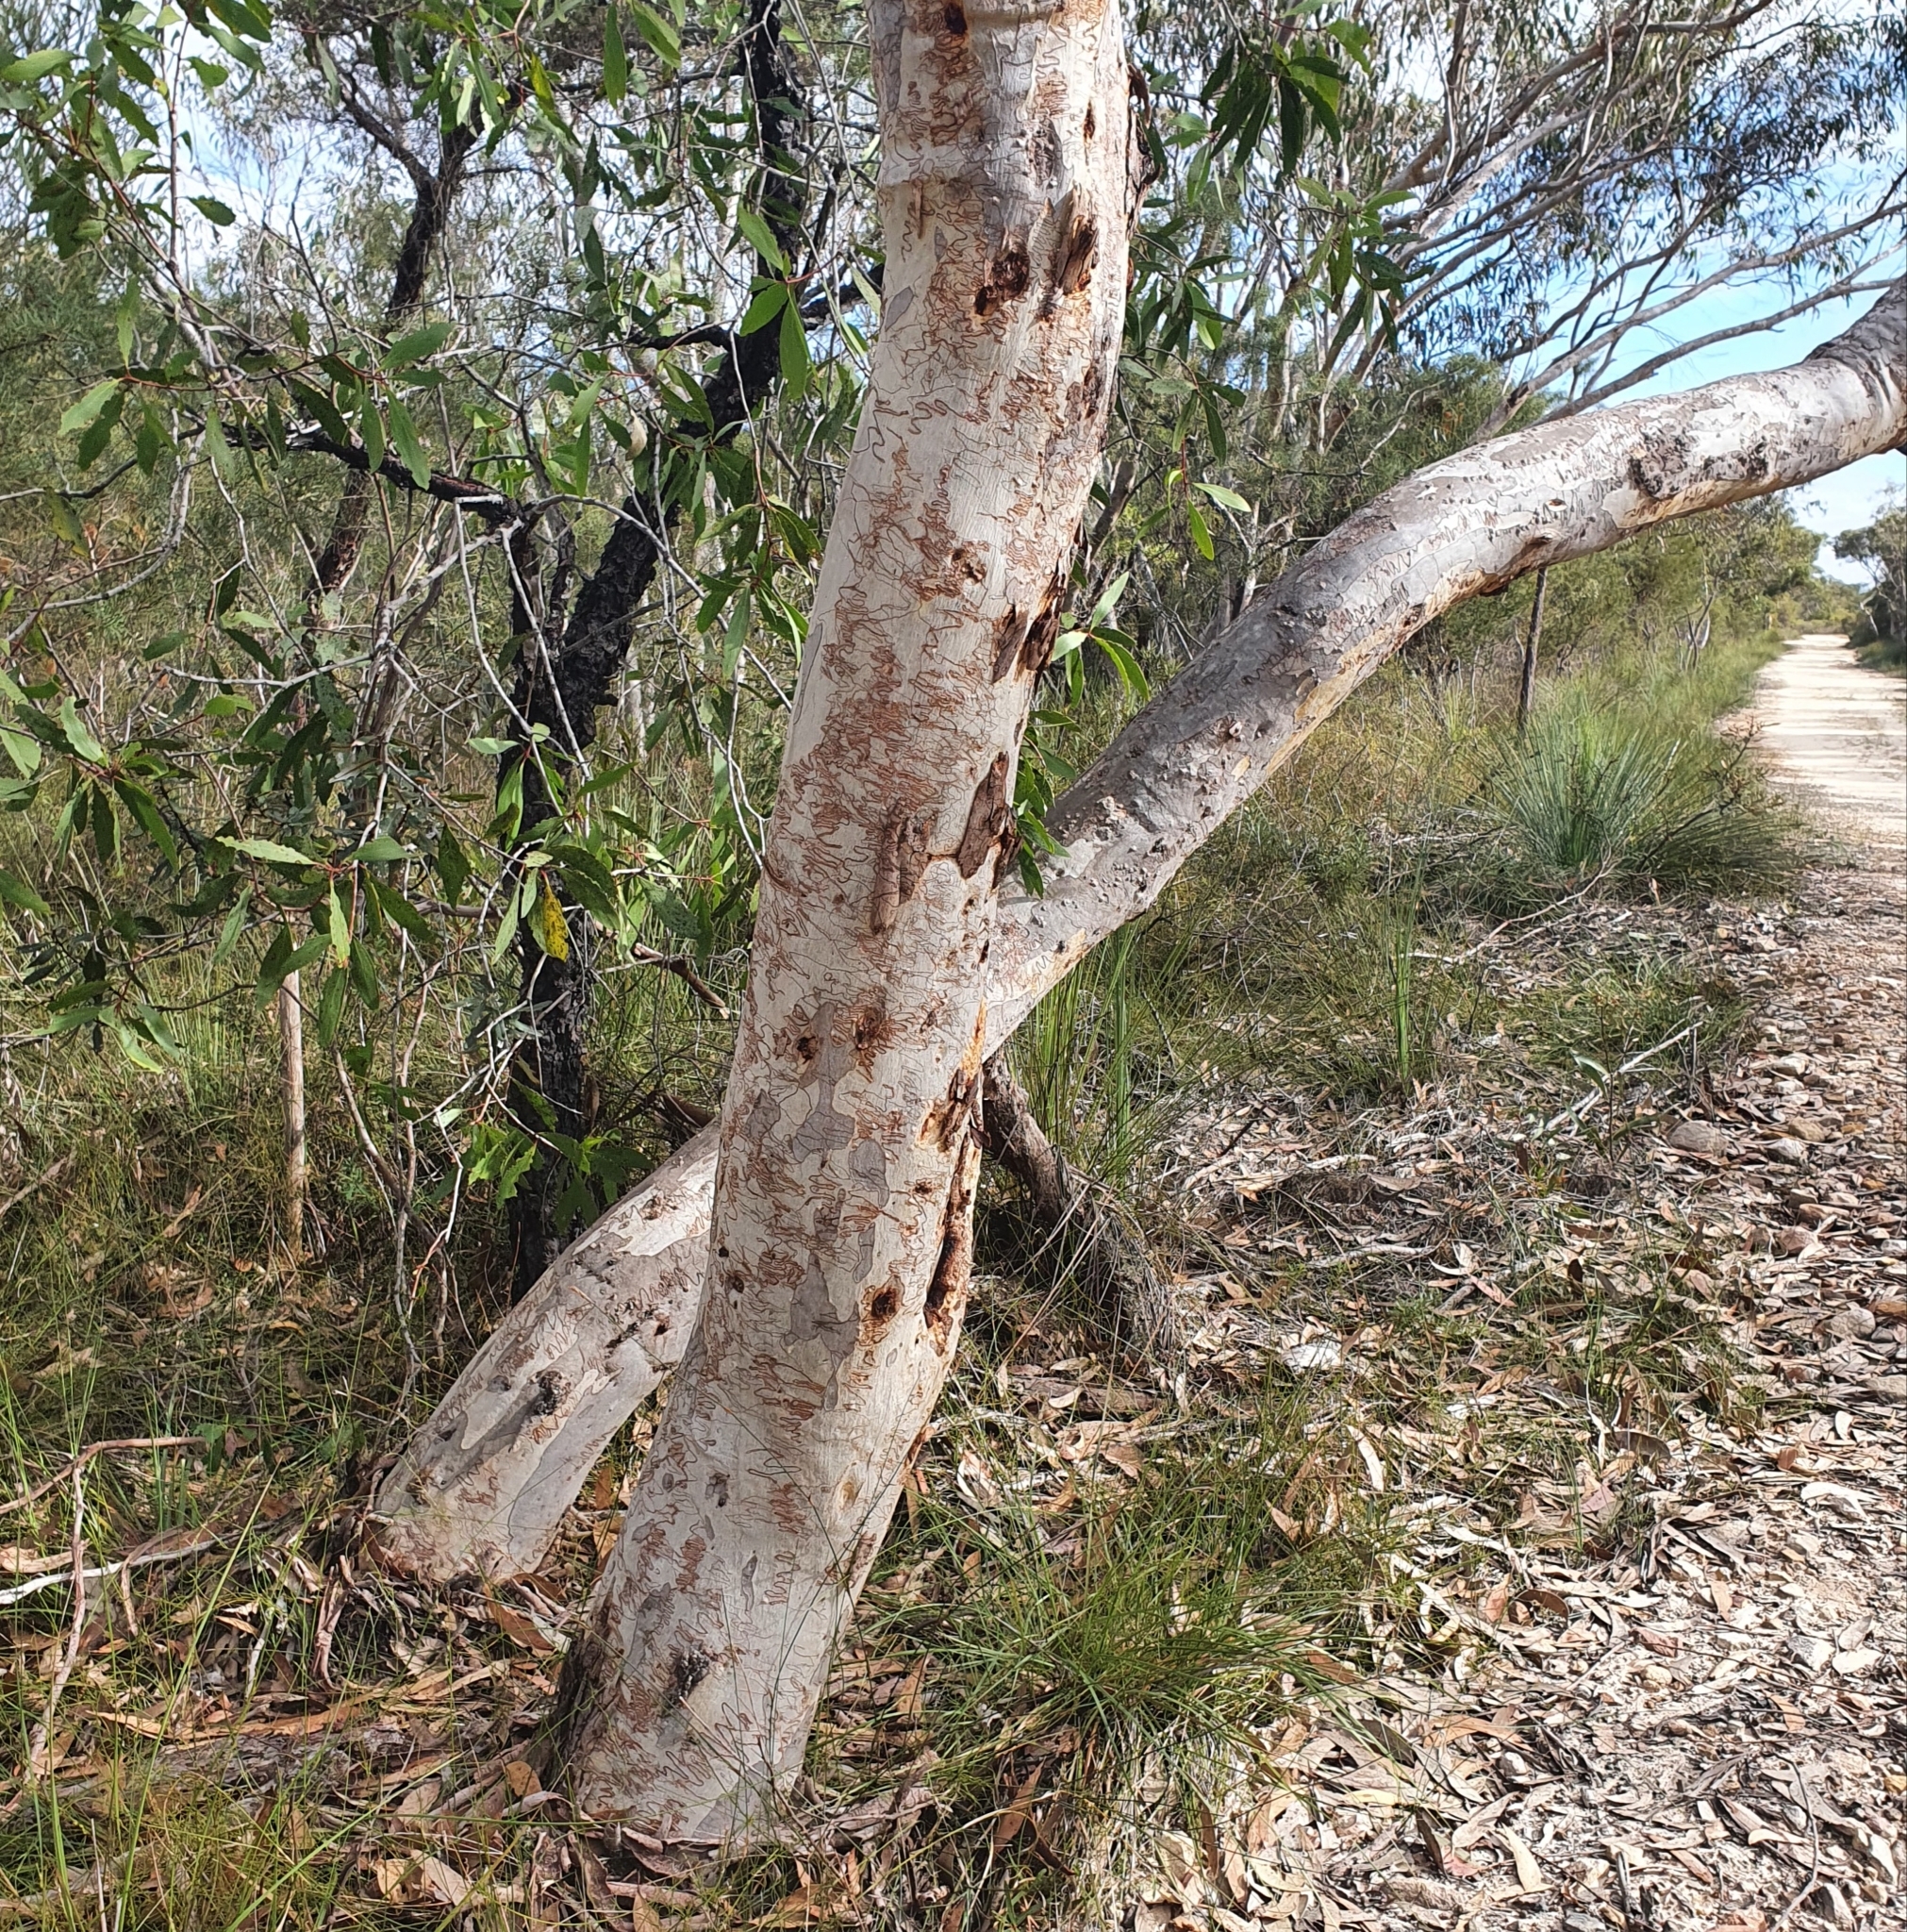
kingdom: Plantae
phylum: Tracheophyta
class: Magnoliopsida
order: Myrtales
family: Myrtaceae
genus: Eucalyptus
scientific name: Eucalyptus haemastoma
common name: Scribbly-gum
